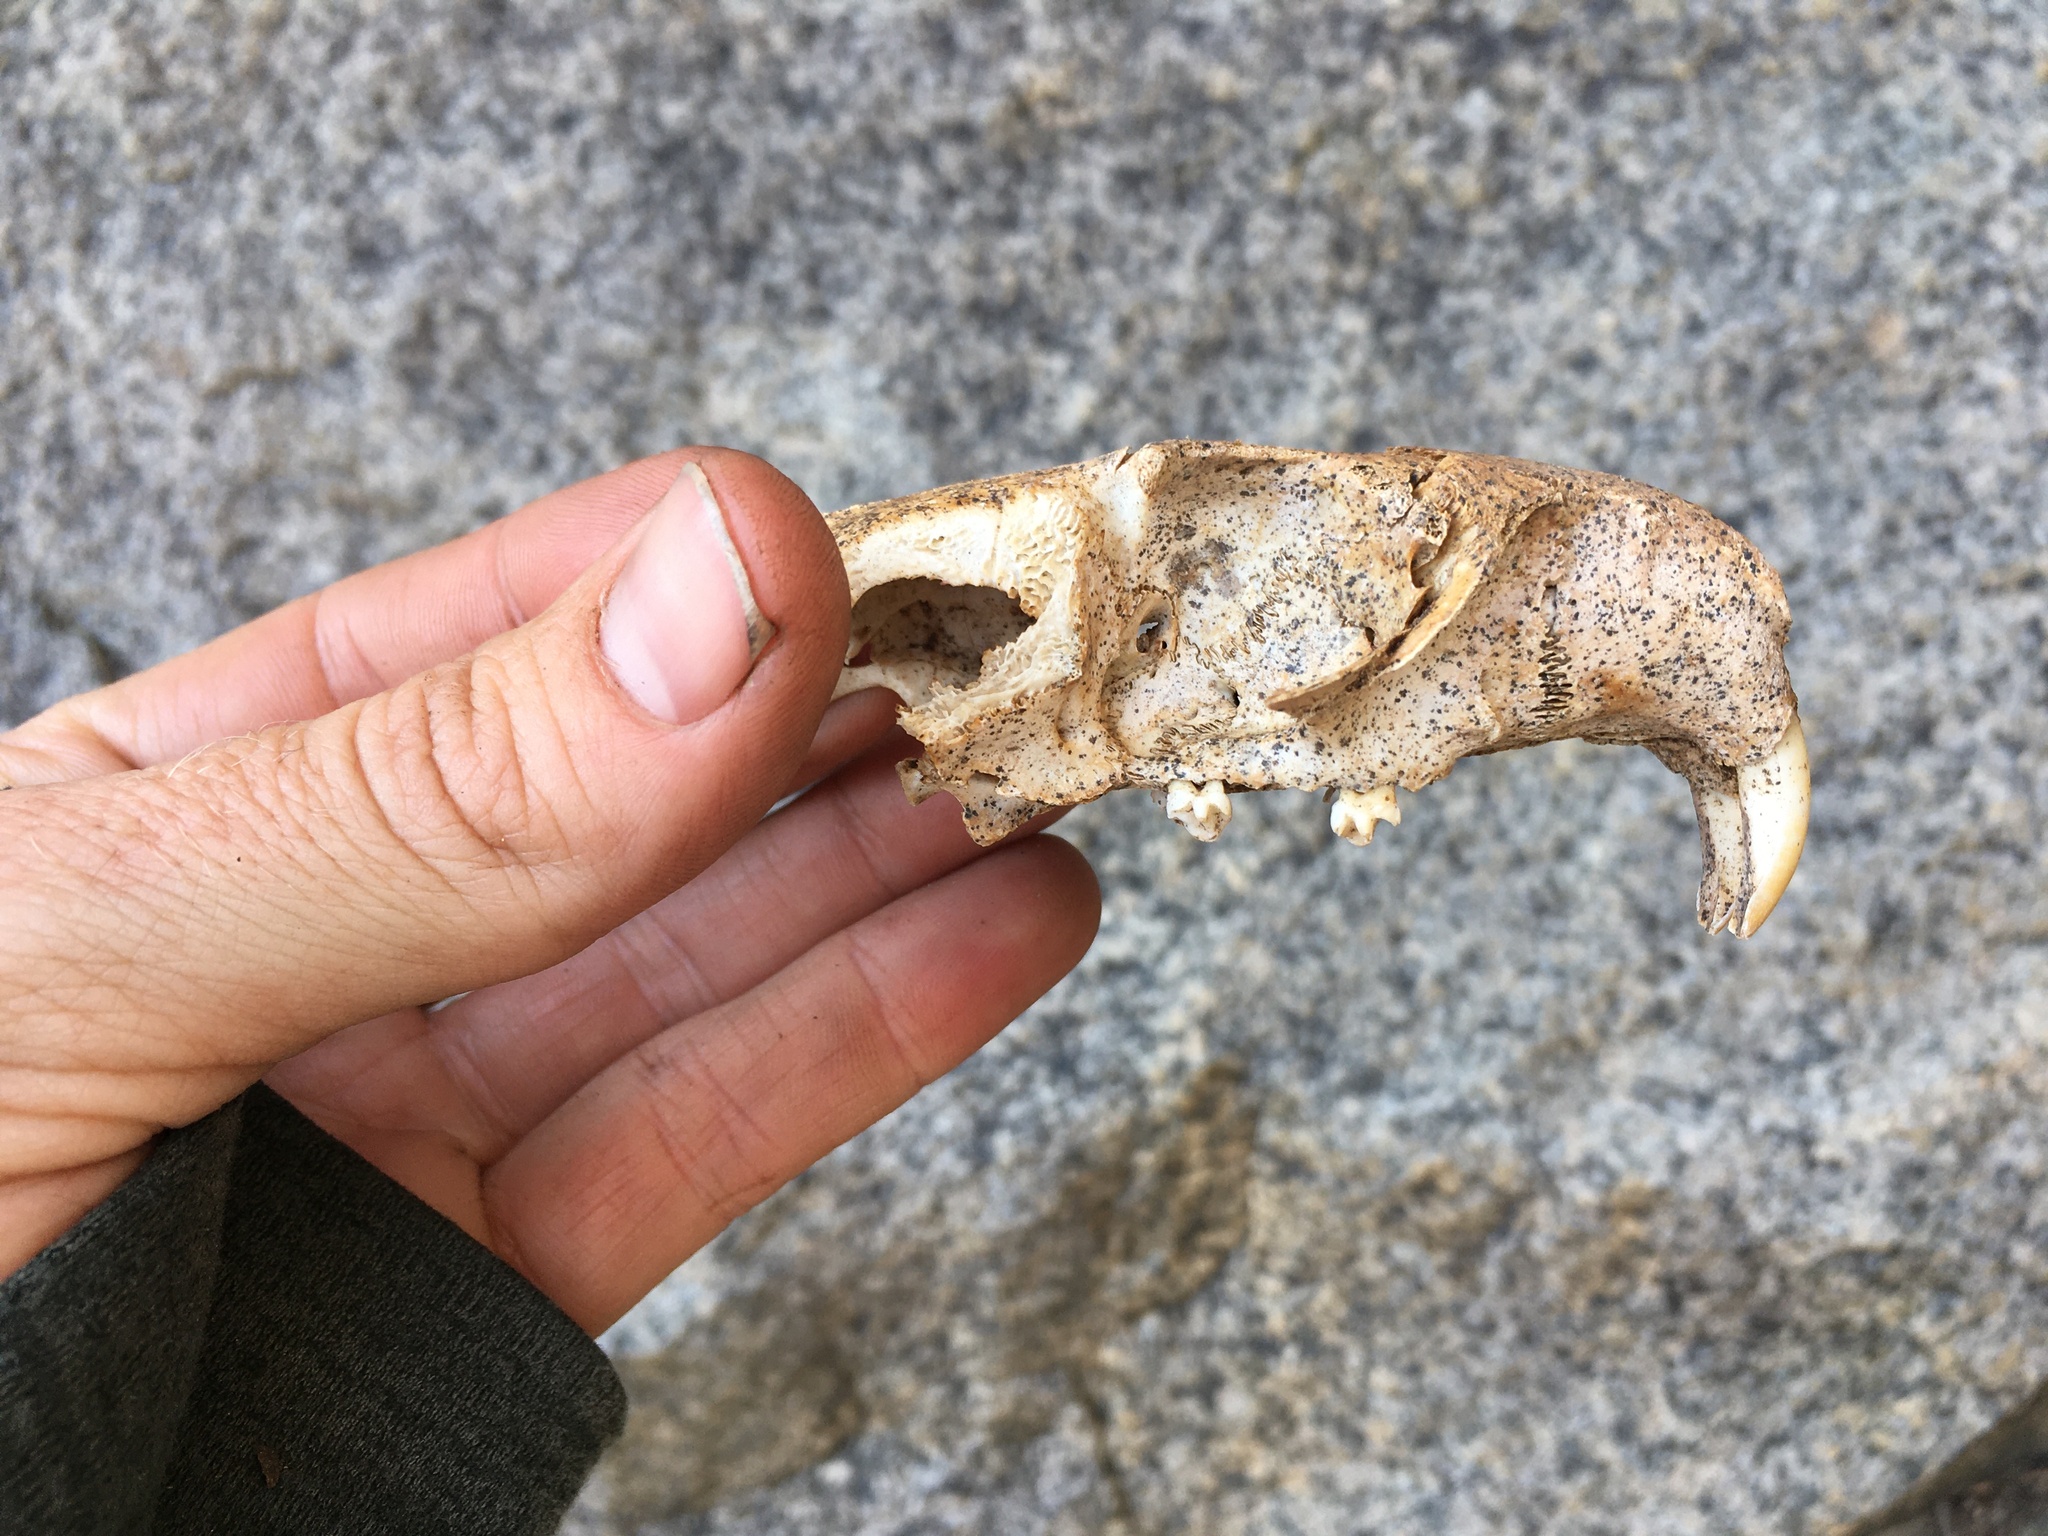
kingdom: Animalia
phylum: Chordata
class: Mammalia
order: Rodentia
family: Sciuridae
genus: Marmota
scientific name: Marmota flaviventris
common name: Yellow-bellied marmot
